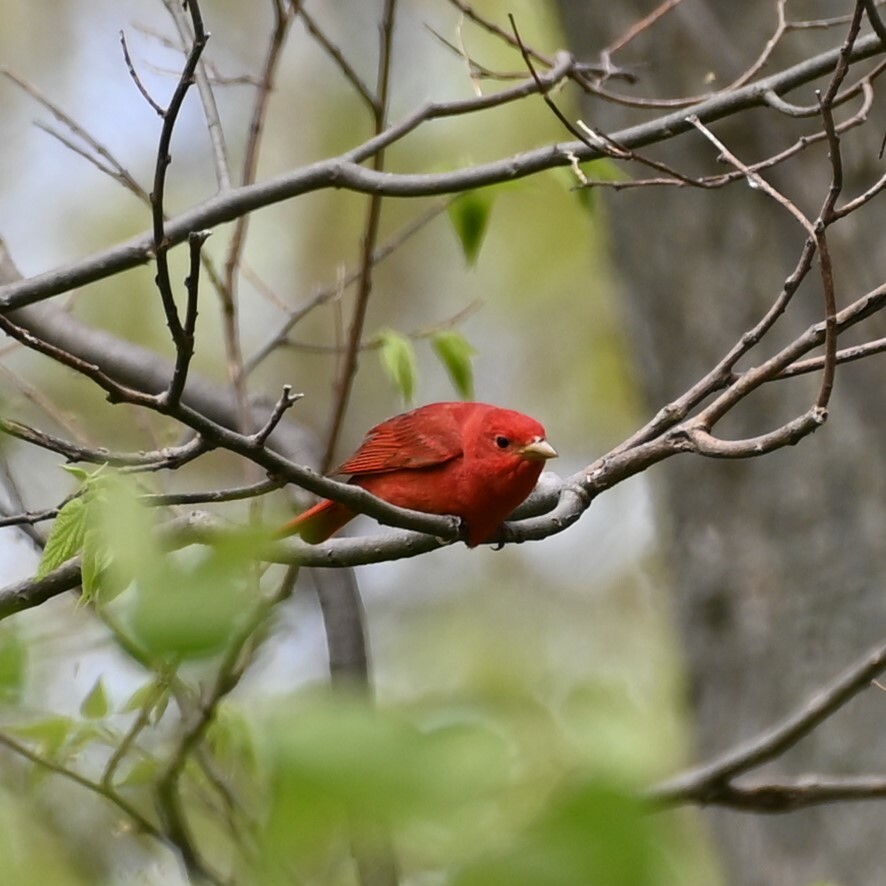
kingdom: Animalia
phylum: Chordata
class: Aves
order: Passeriformes
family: Cardinalidae
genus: Piranga
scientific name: Piranga rubra
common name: Summer tanager
